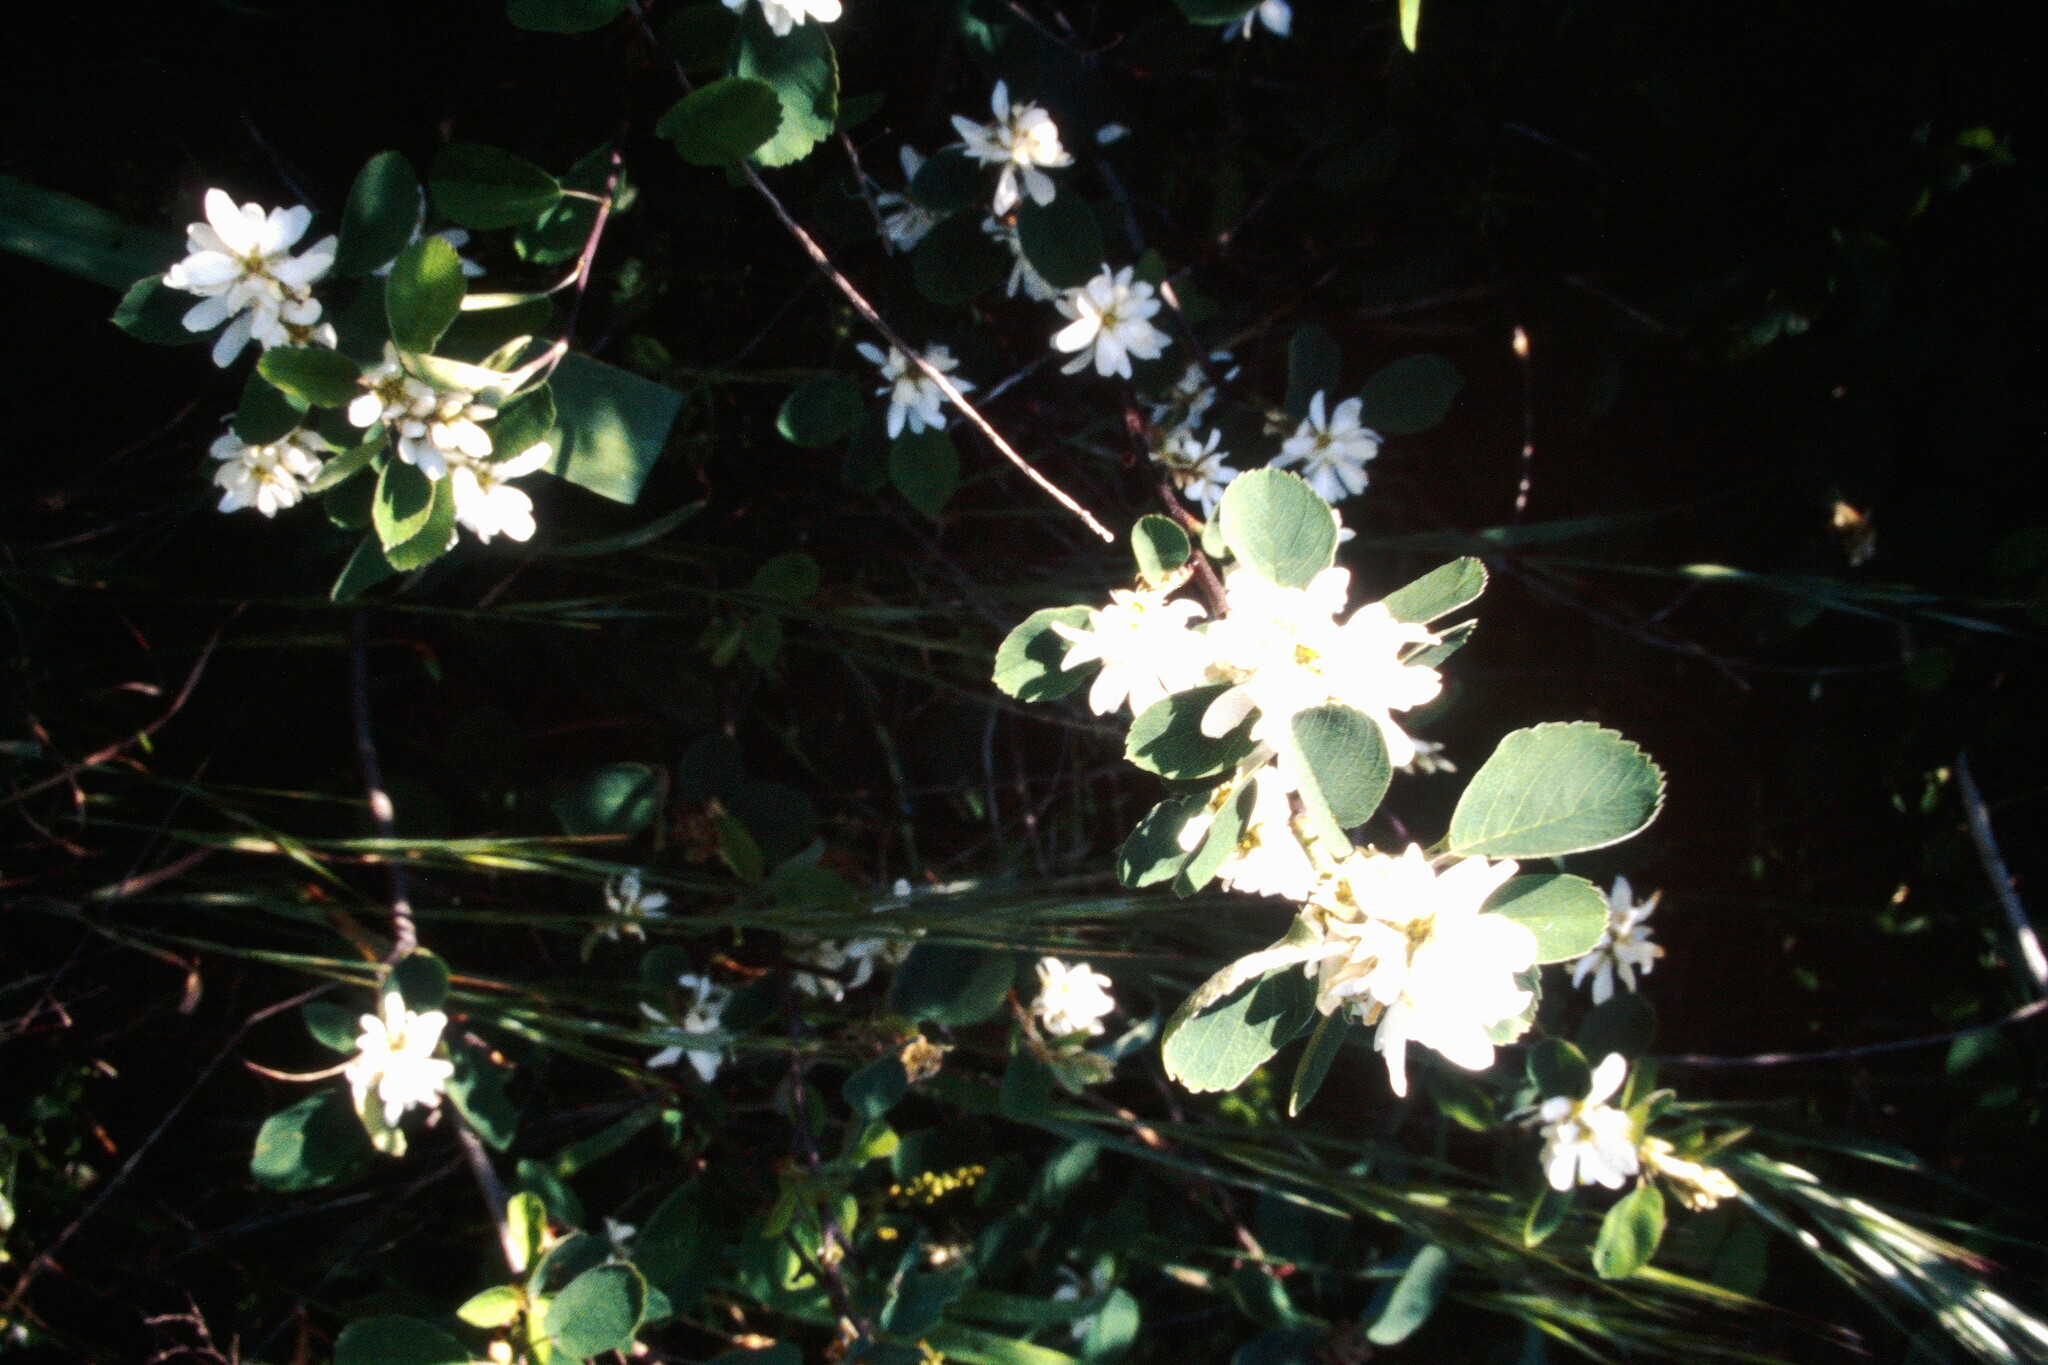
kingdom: Plantae
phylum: Tracheophyta
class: Magnoliopsida
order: Rosales
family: Rosaceae
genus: Amelanchier
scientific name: Amelanchier utahensis
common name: Utah serviceberry
